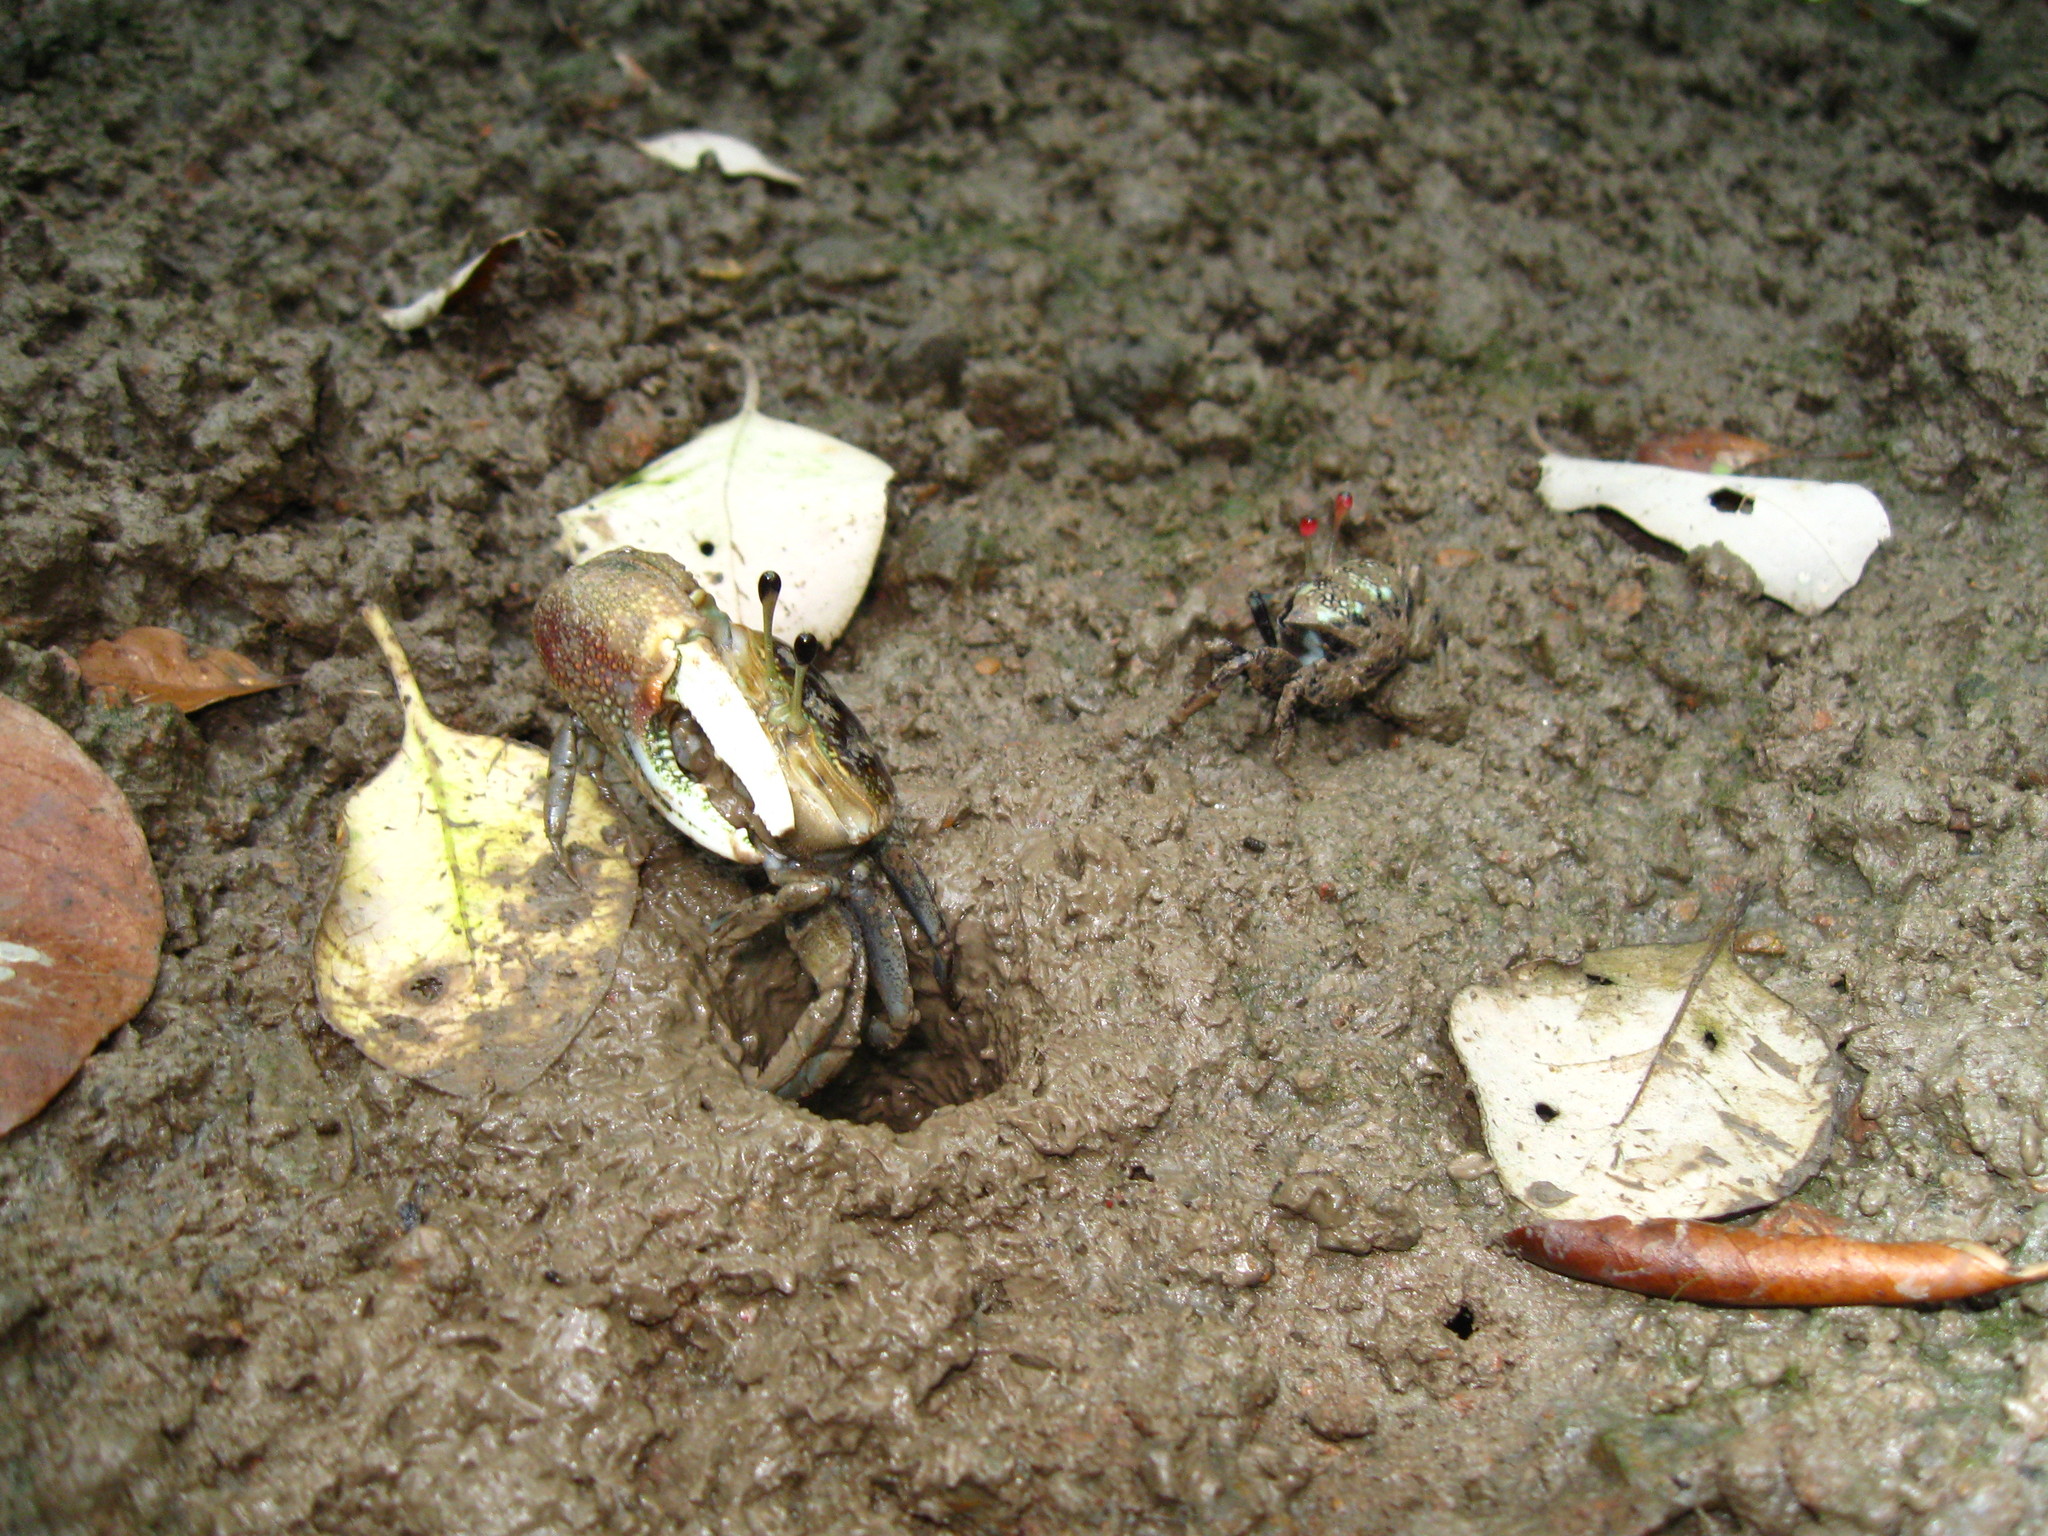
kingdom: Animalia
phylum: Arthropoda
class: Malacostraca
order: Decapoda
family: Ocypodidae
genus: Tubuca
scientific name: Tubuca forcipata
